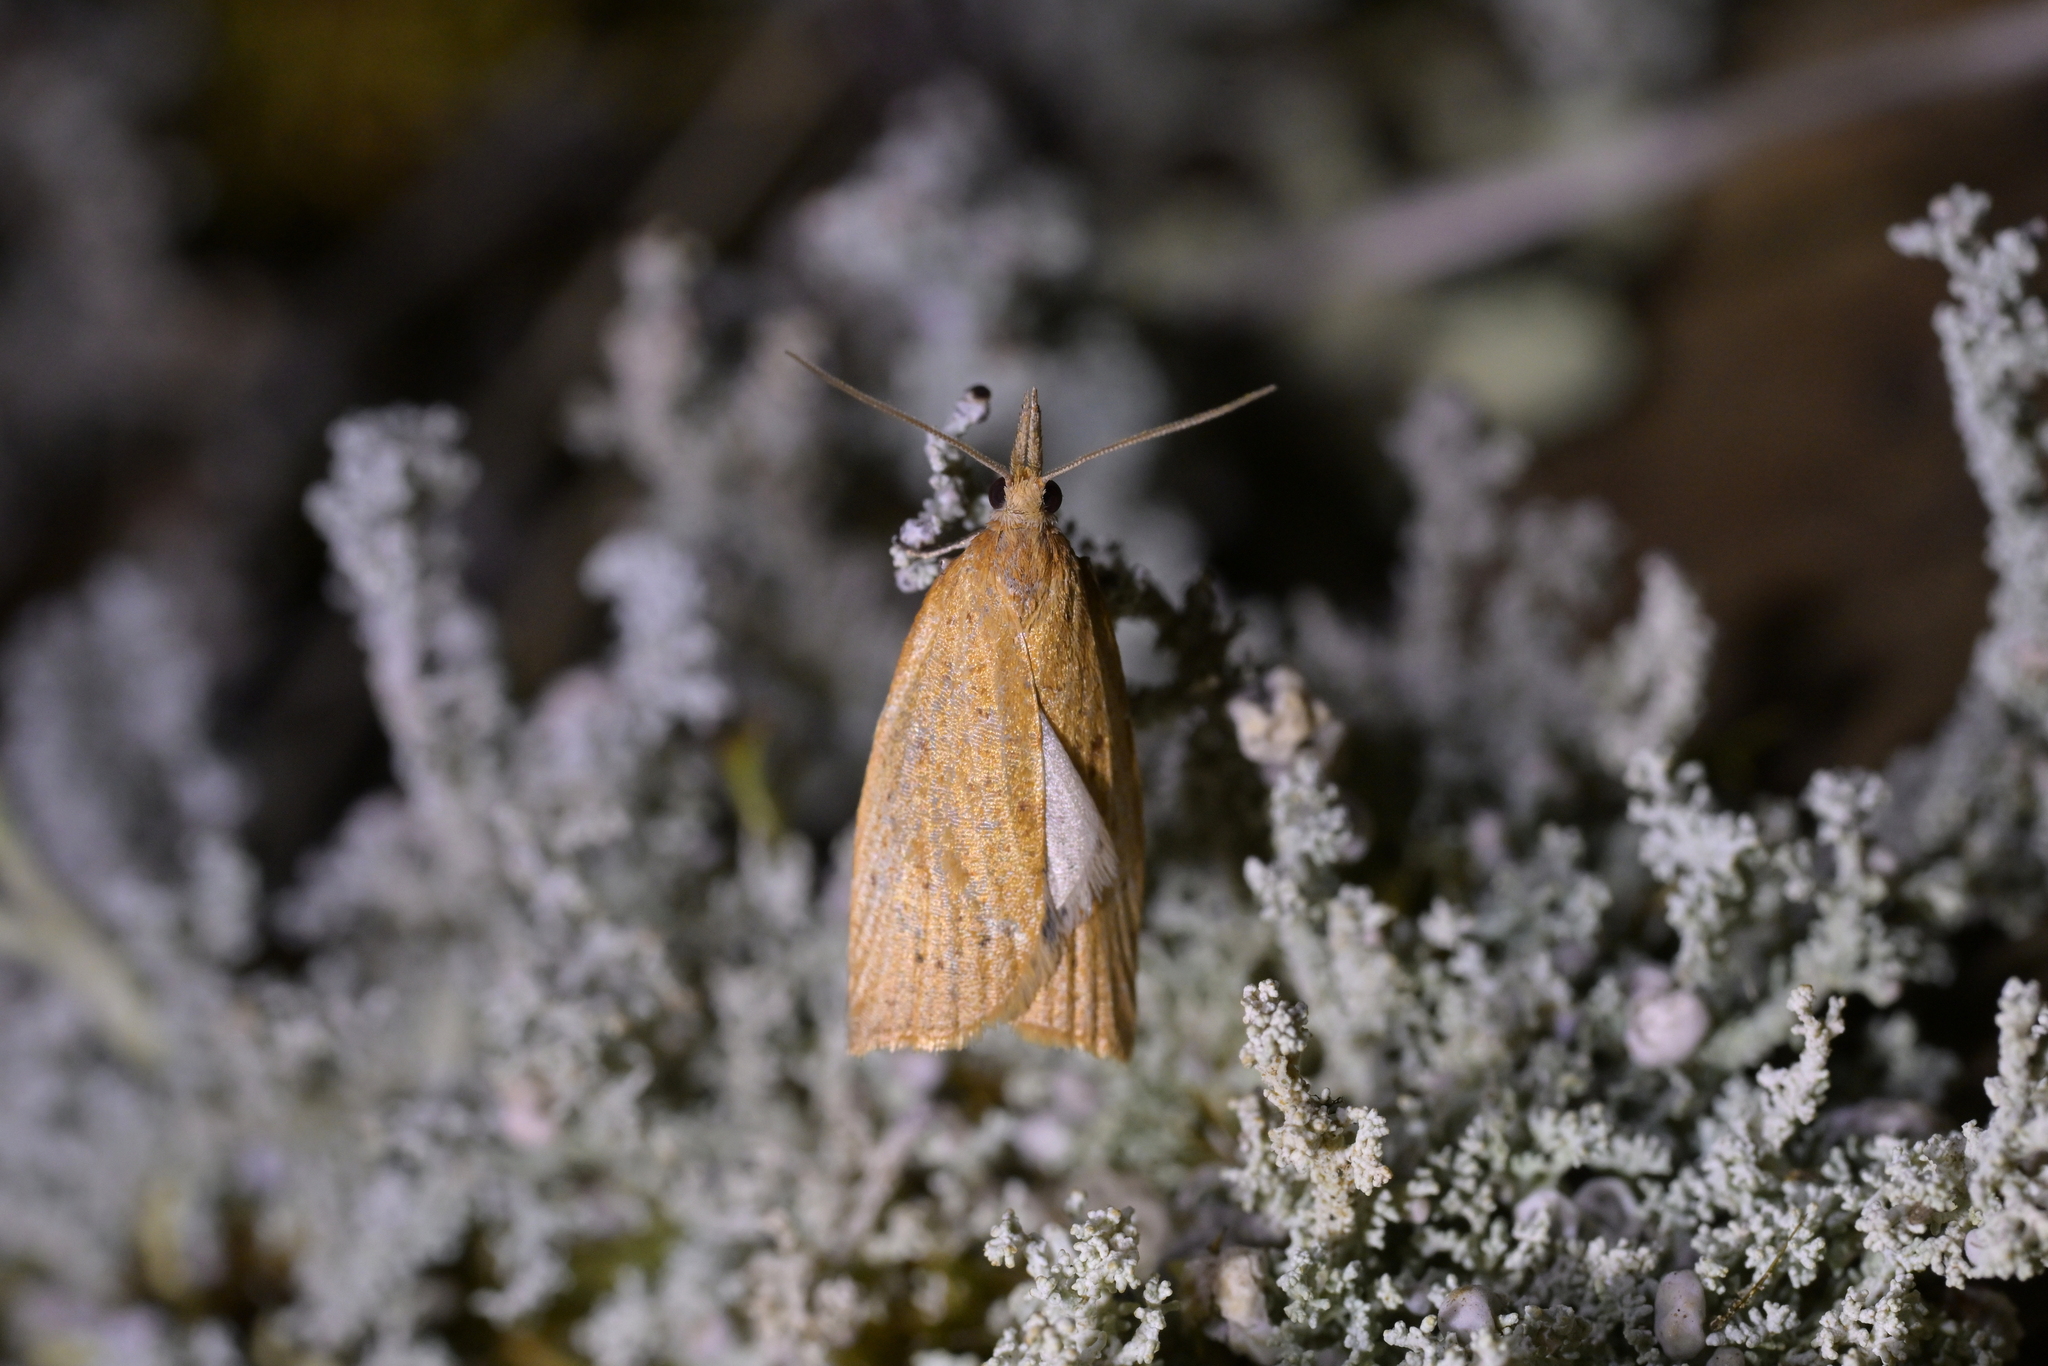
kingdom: Animalia
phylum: Arthropoda
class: Insecta
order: Lepidoptera
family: Tortricidae
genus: Apoctena
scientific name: Apoctena flavescens
